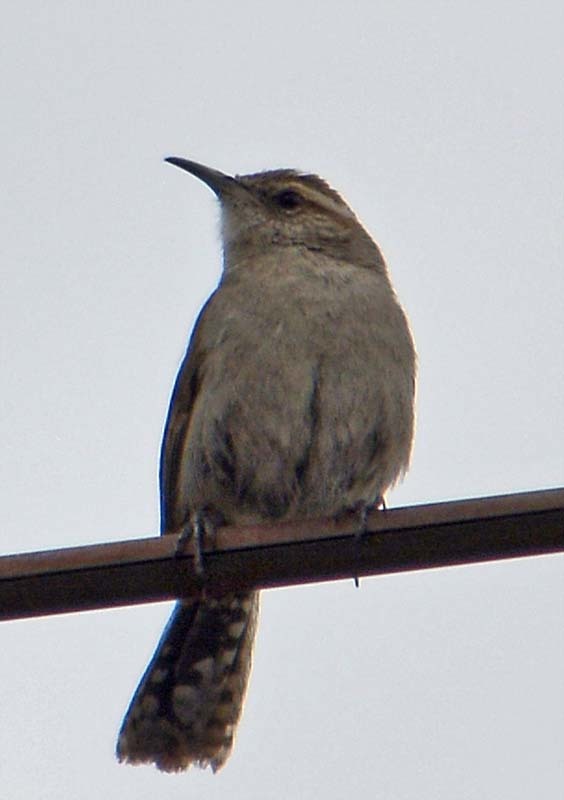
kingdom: Animalia
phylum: Chordata
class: Aves
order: Passeriformes
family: Troglodytidae
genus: Thryomanes
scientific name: Thryomanes bewickii
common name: Bewick's wren
